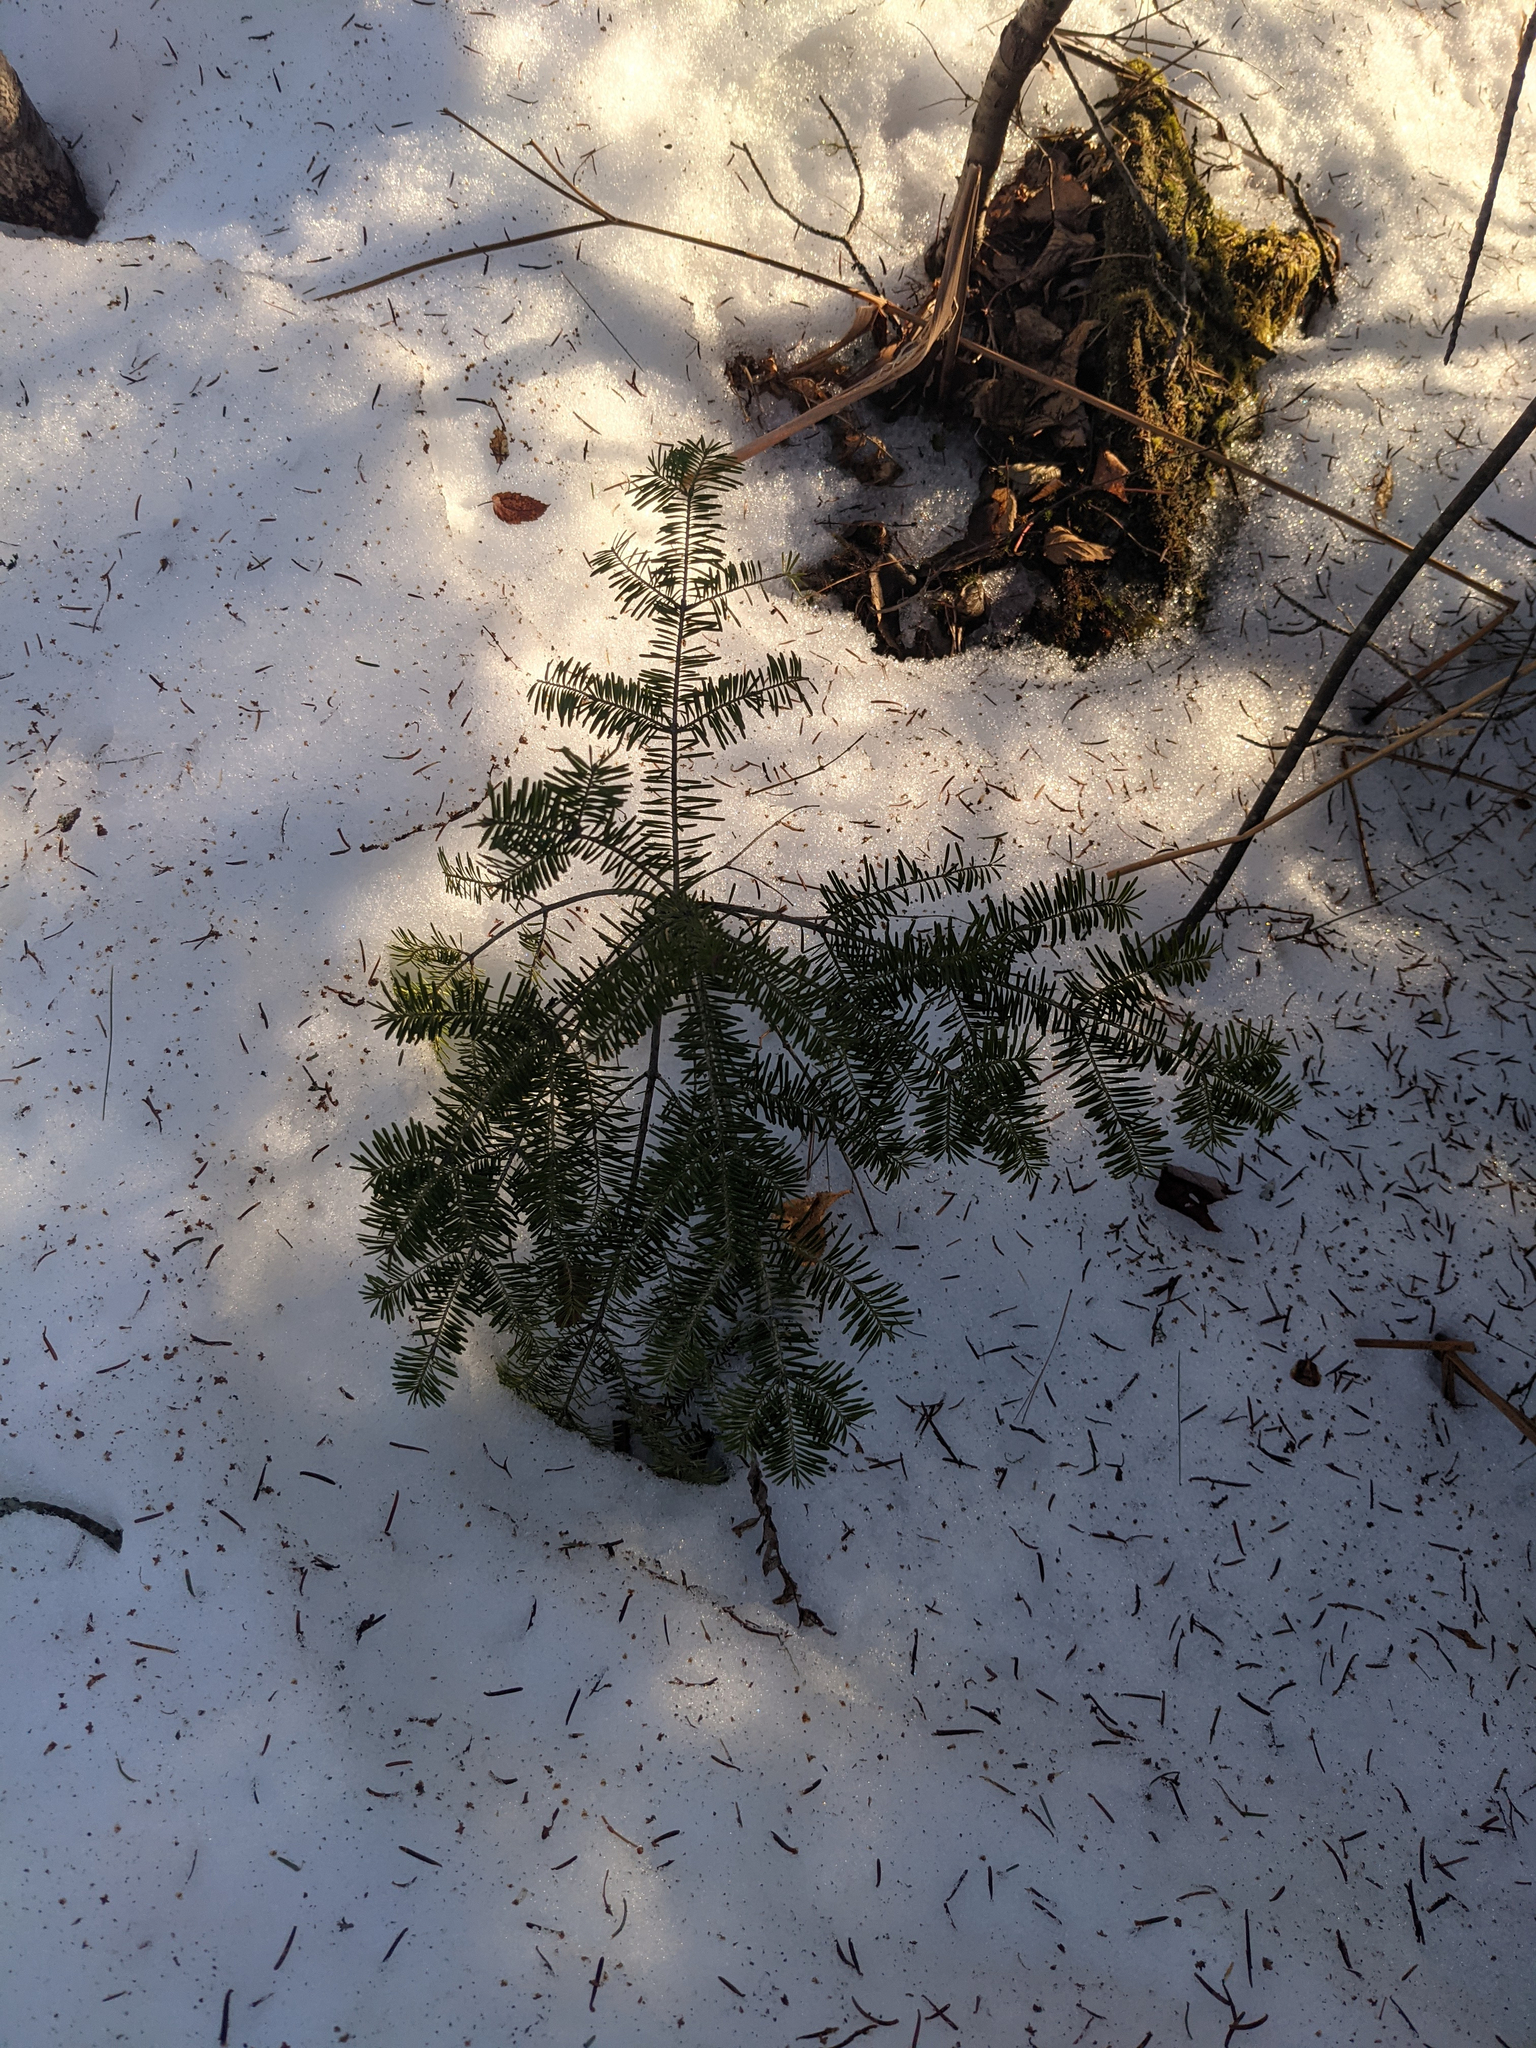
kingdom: Plantae
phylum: Tracheophyta
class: Pinopsida
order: Pinales
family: Pinaceae
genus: Abies
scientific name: Abies balsamea
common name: Balsam fir
